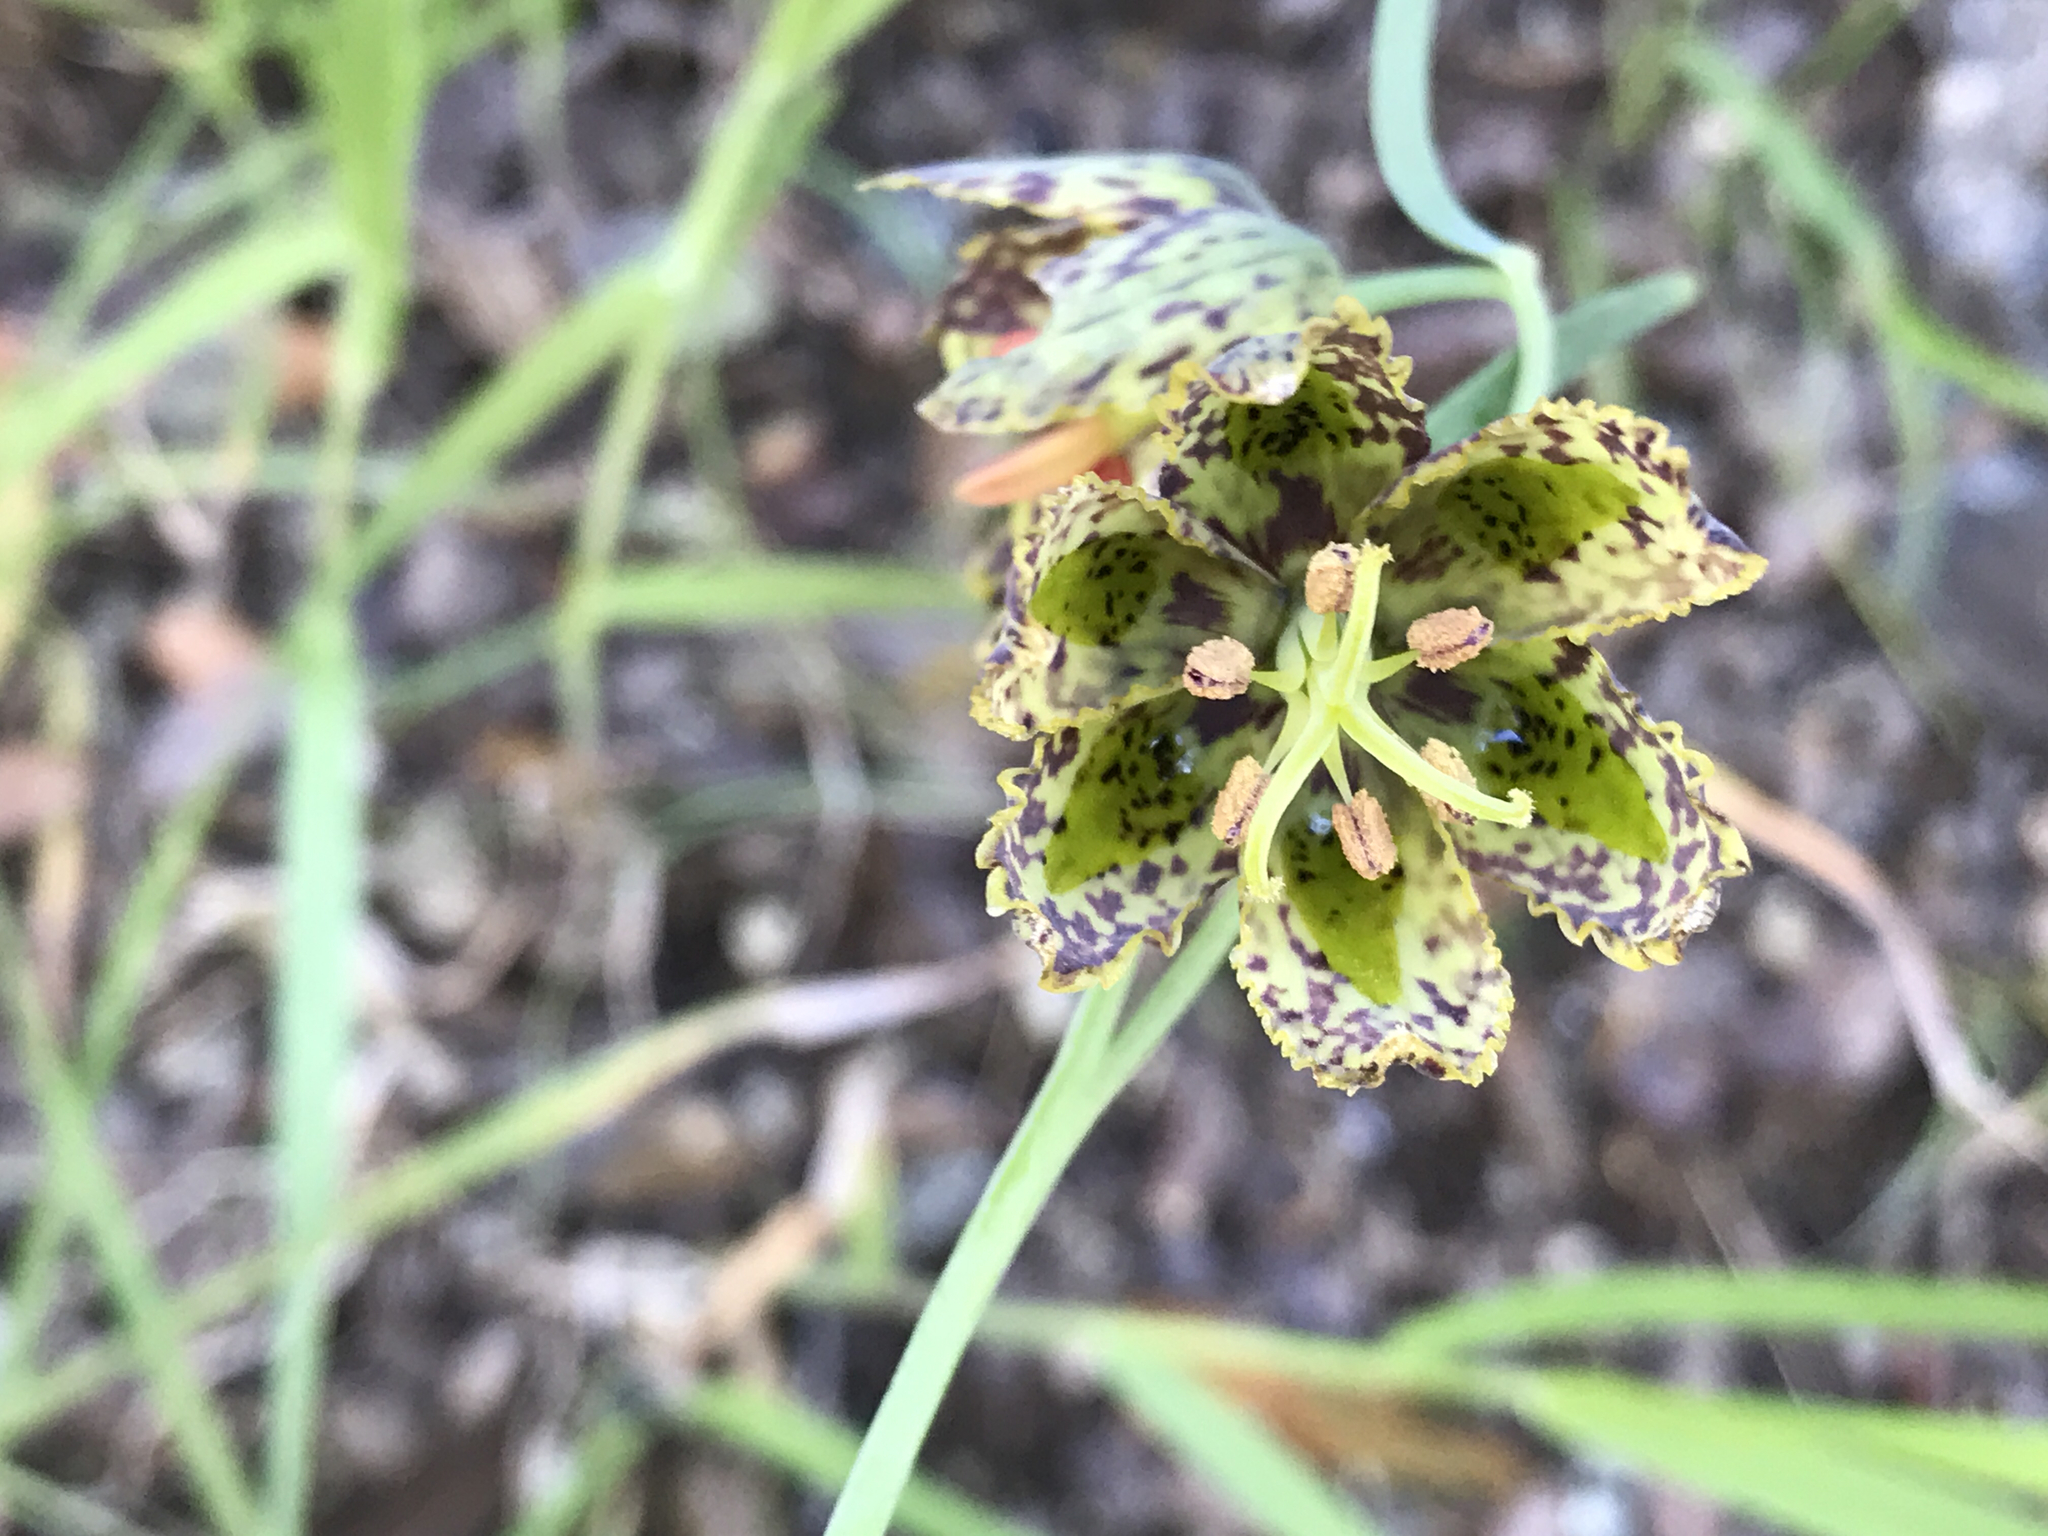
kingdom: Plantae
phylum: Tracheophyta
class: Liliopsida
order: Liliales
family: Liliaceae
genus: Fritillaria
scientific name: Fritillaria affinis
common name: Ojai fritillary
